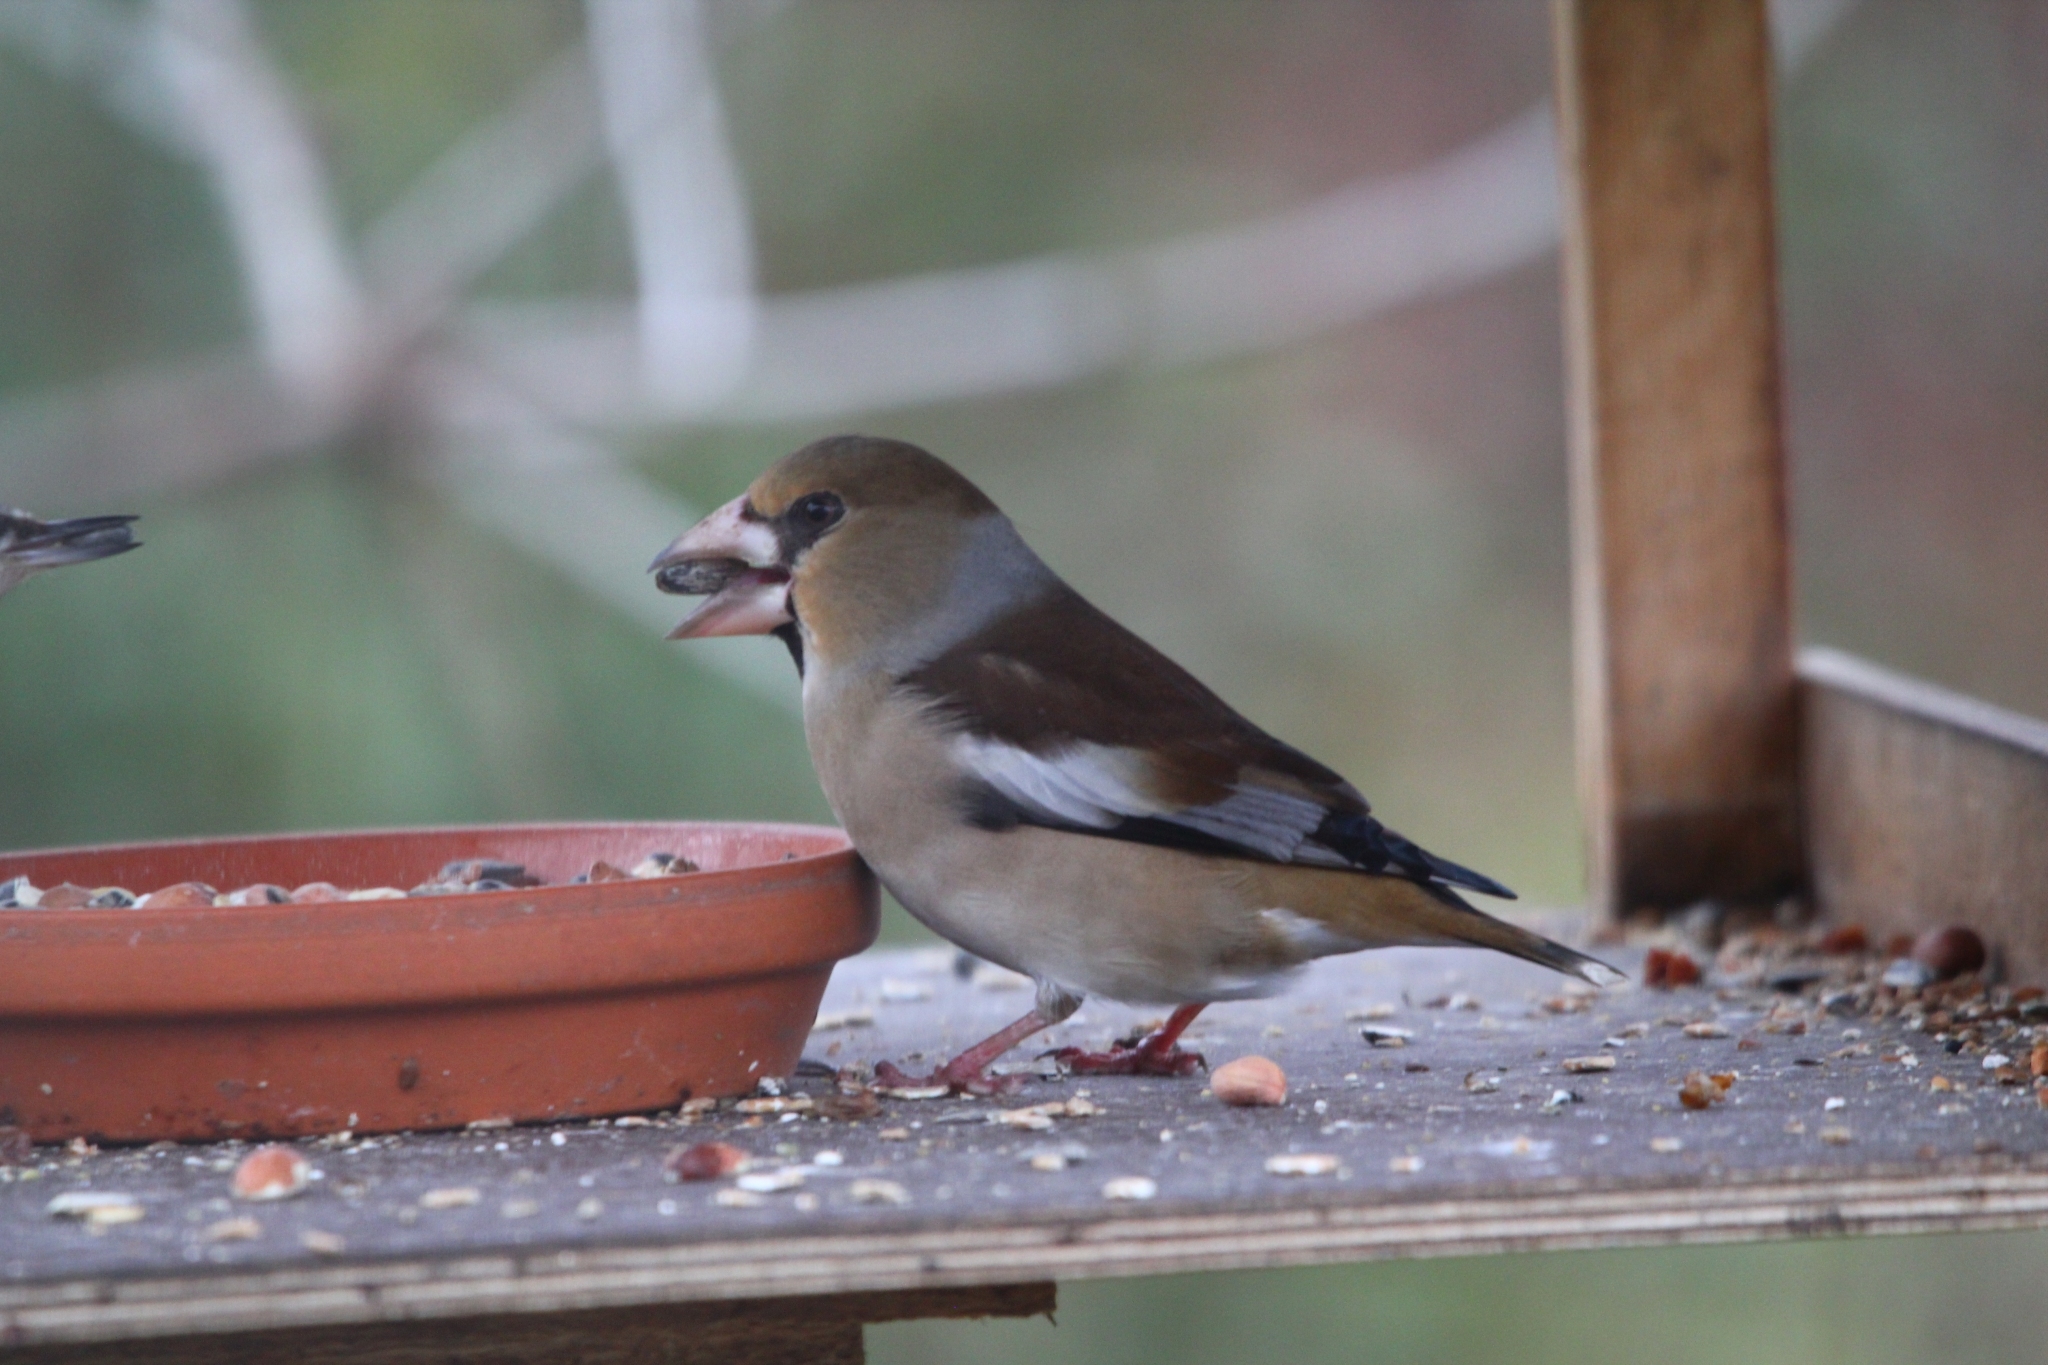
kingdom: Animalia
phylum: Chordata
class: Aves
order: Passeriformes
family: Fringillidae
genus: Coccothraustes
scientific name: Coccothraustes coccothraustes
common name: Hawfinch
